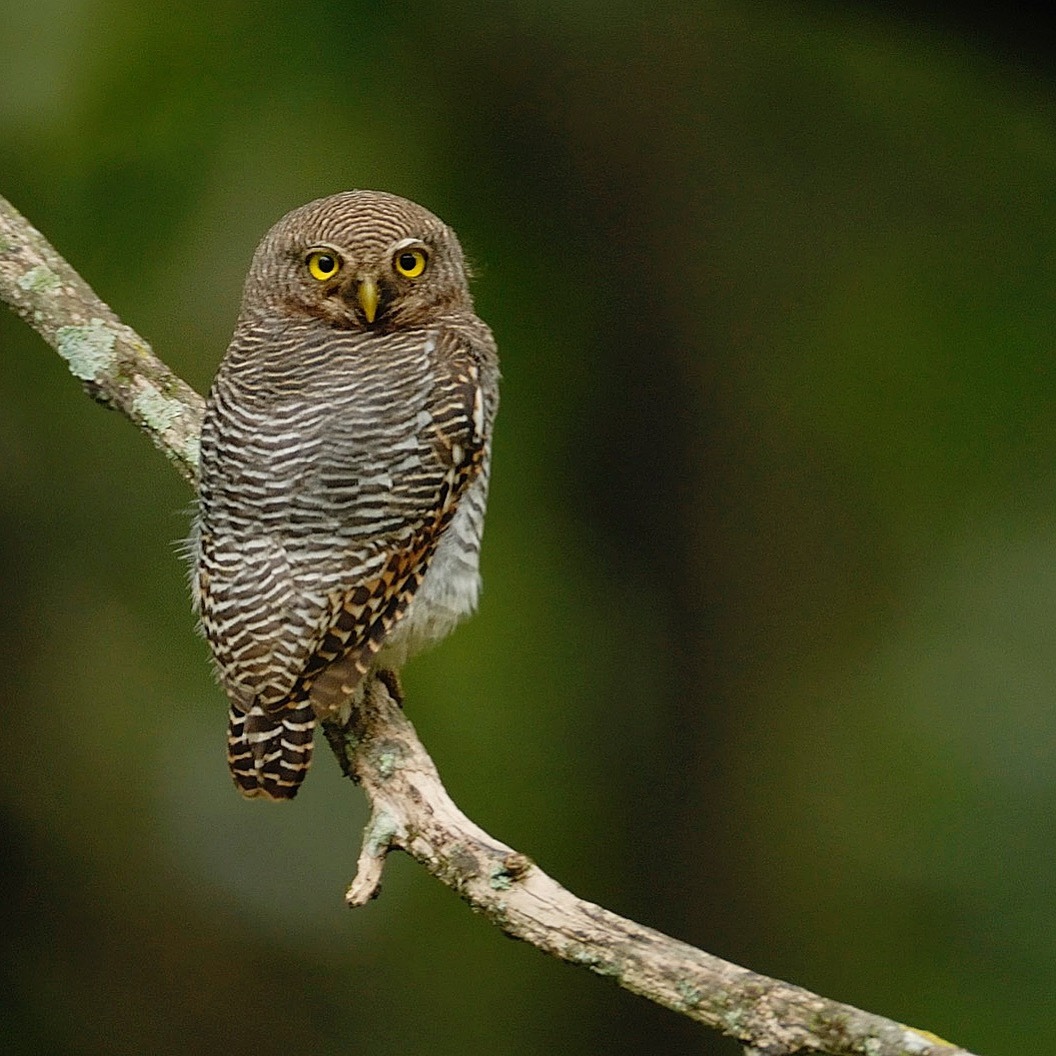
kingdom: Animalia
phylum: Chordata
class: Aves
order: Strigiformes
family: Strigidae
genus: Glaucidium
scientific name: Glaucidium radiatum
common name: Jungle owlet
